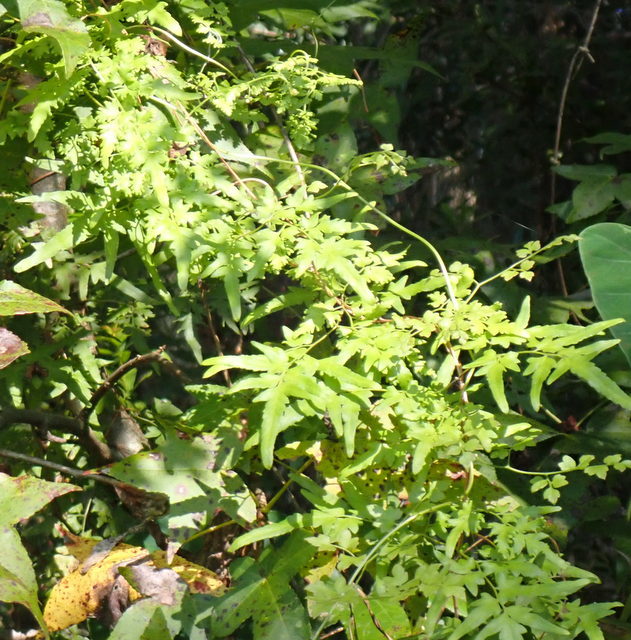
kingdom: Plantae
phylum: Tracheophyta
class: Polypodiopsida
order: Schizaeales
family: Lygodiaceae
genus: Lygodium
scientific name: Lygodium japonicum
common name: Japanese climbing fern
